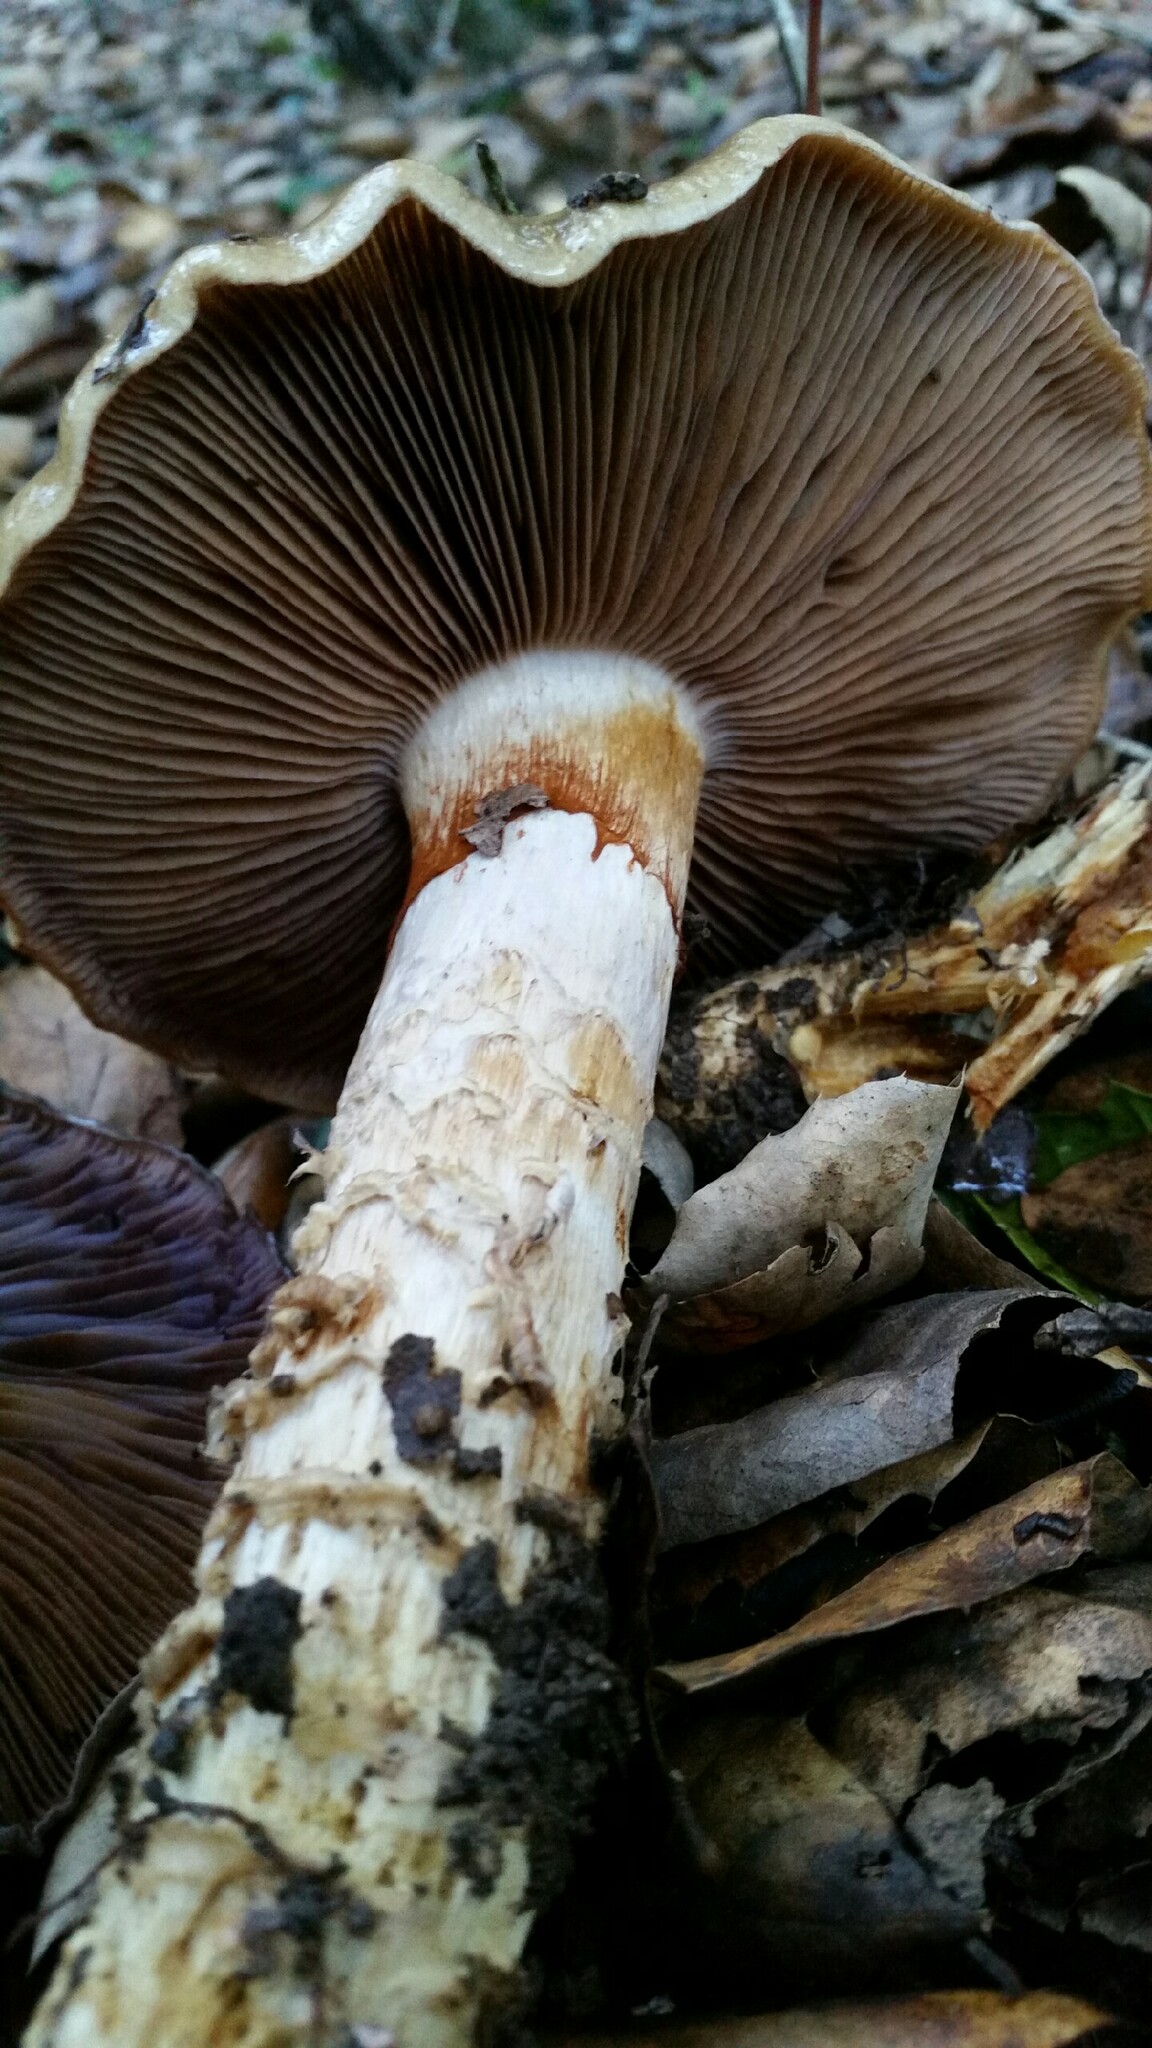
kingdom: Fungi
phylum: Basidiomycota
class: Agaricomycetes
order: Agaricales
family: Cortinariaceae
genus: Cortinarius
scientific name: Cortinarius glutinosoarmillatus
